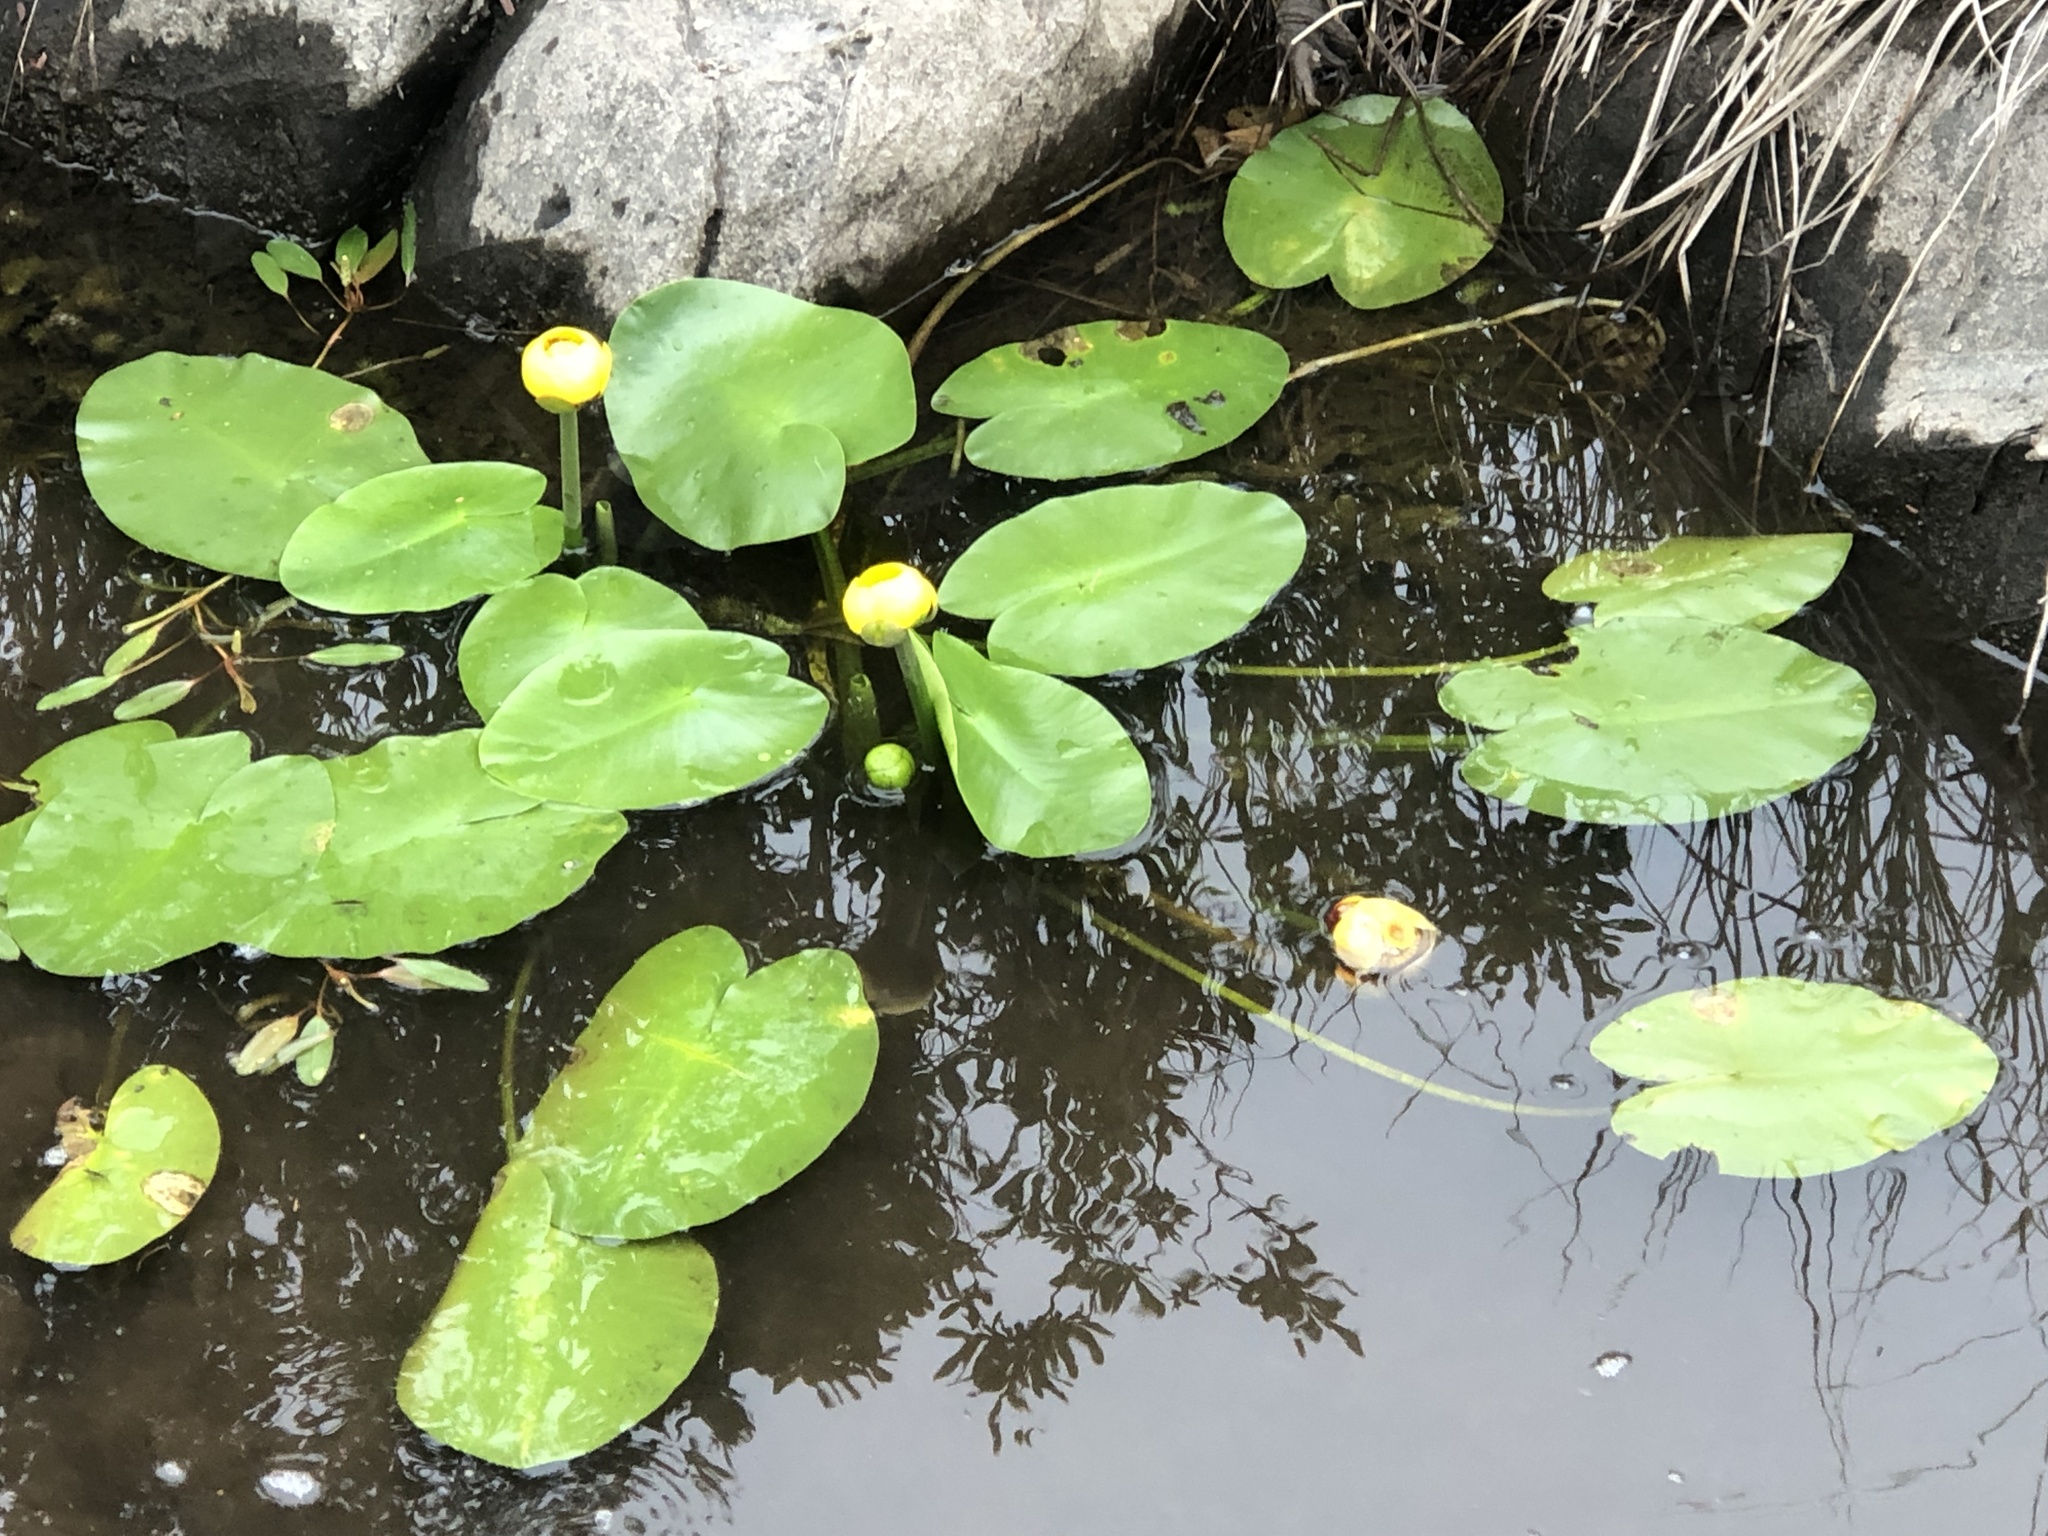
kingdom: Plantae
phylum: Tracheophyta
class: Magnoliopsida
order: Nymphaeales
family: Nymphaeaceae
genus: Nuphar
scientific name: Nuphar variegata
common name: Beaver-root
